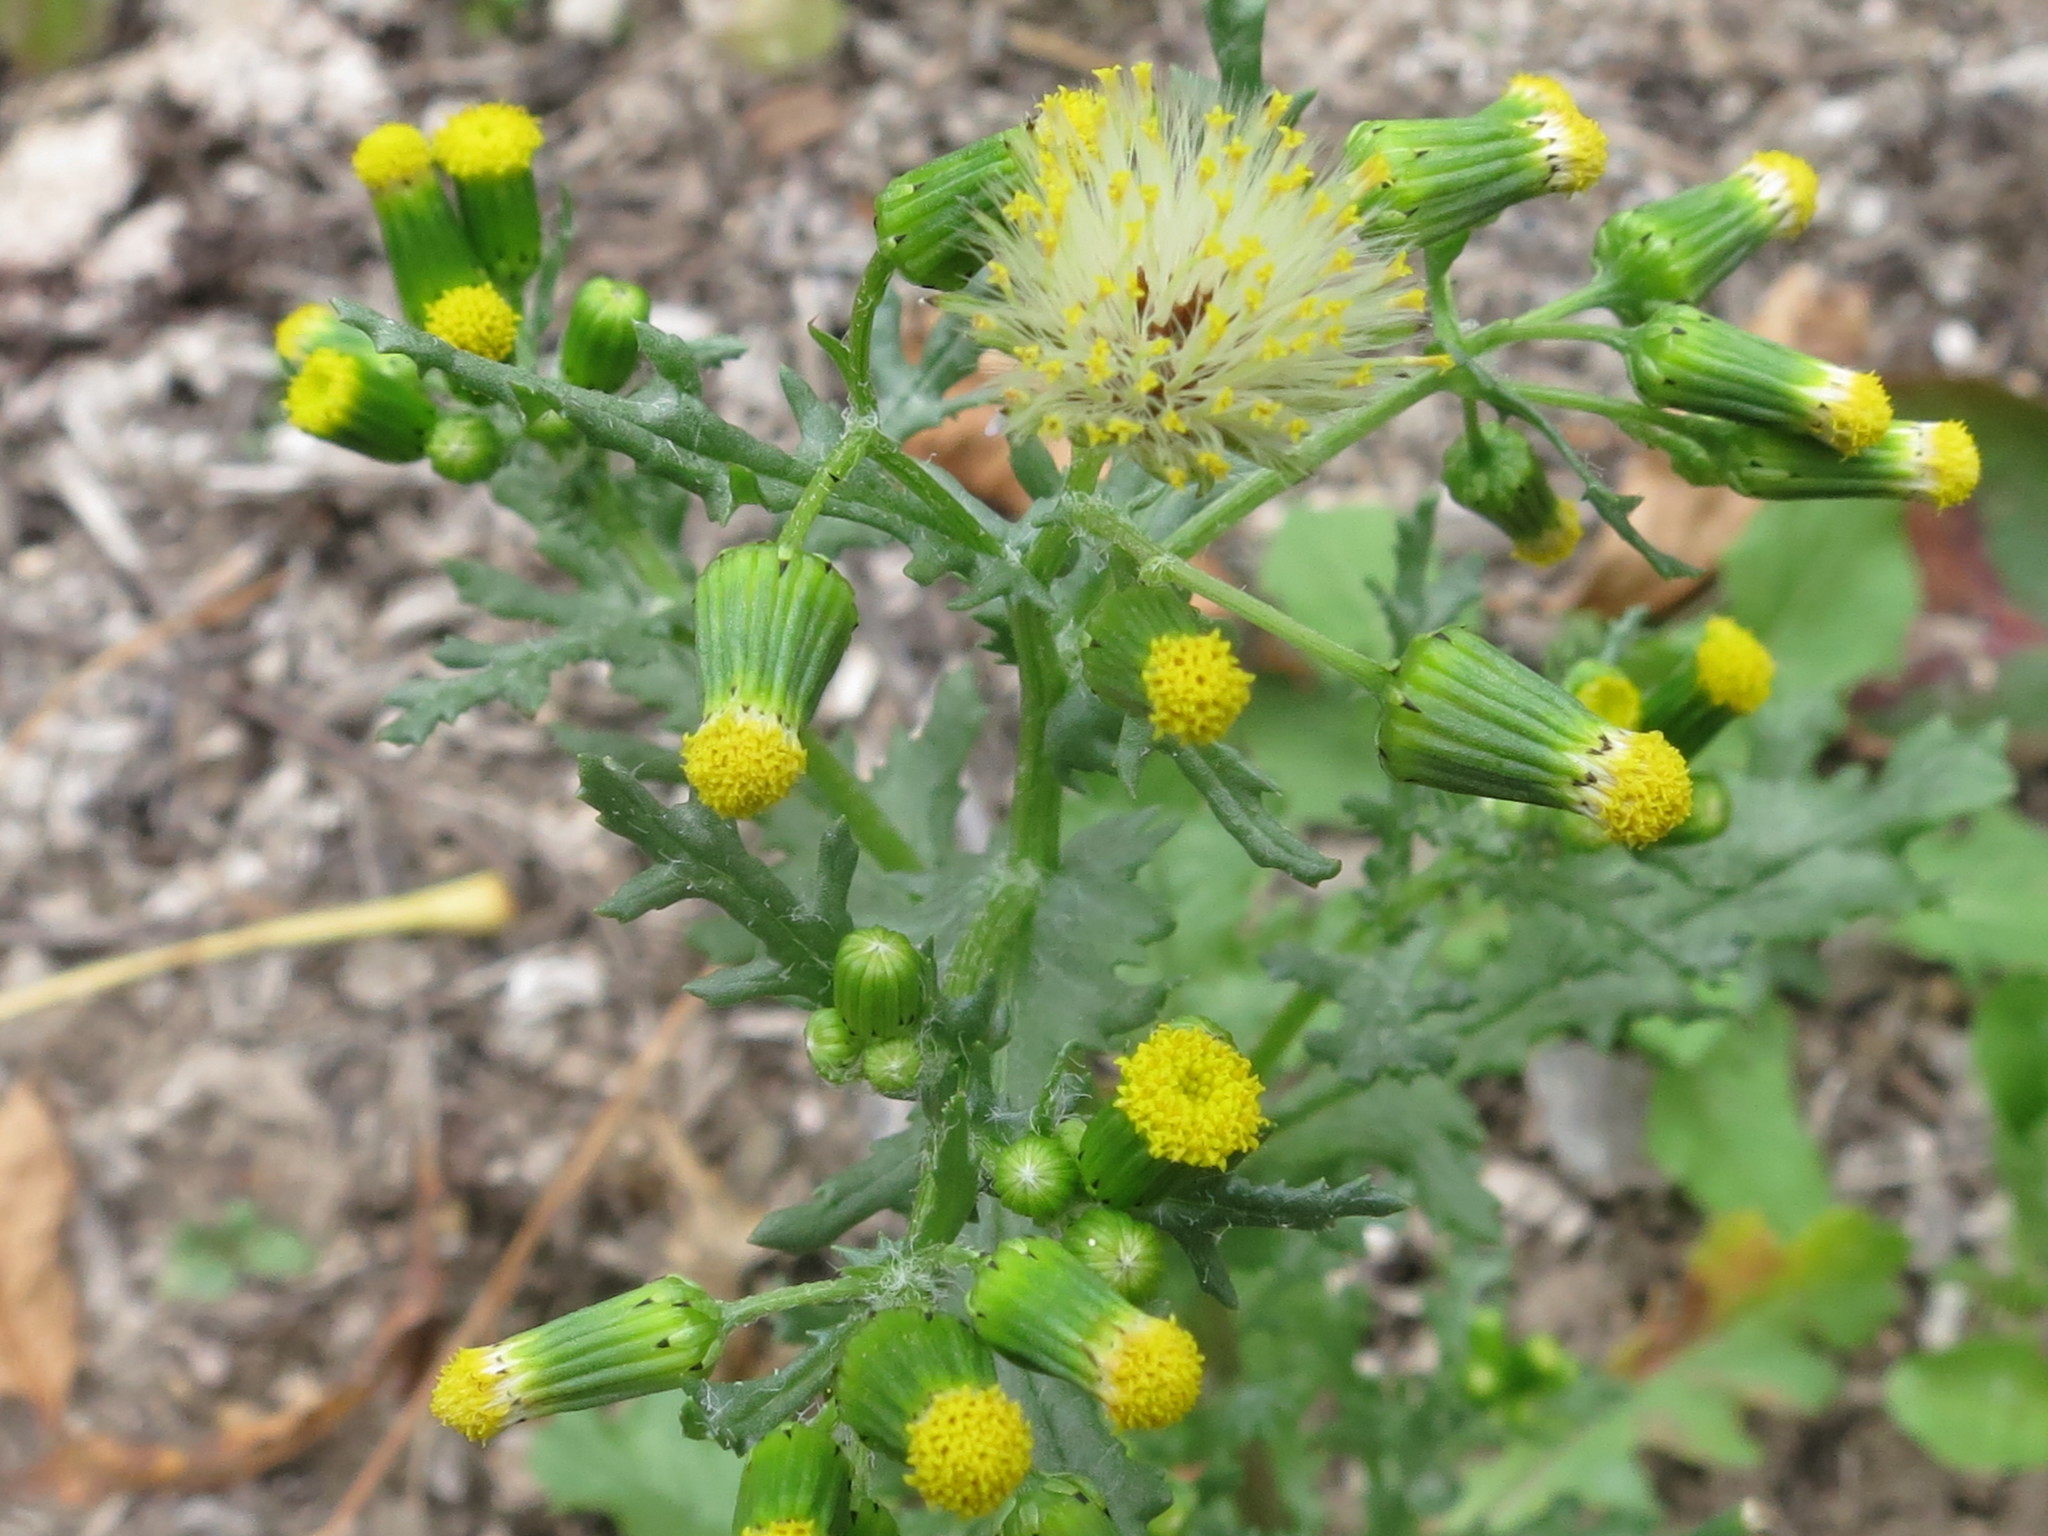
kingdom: Plantae
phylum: Tracheophyta
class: Magnoliopsida
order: Asterales
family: Asteraceae
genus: Senecio
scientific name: Senecio vulgaris
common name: Old-man-in-the-spring
